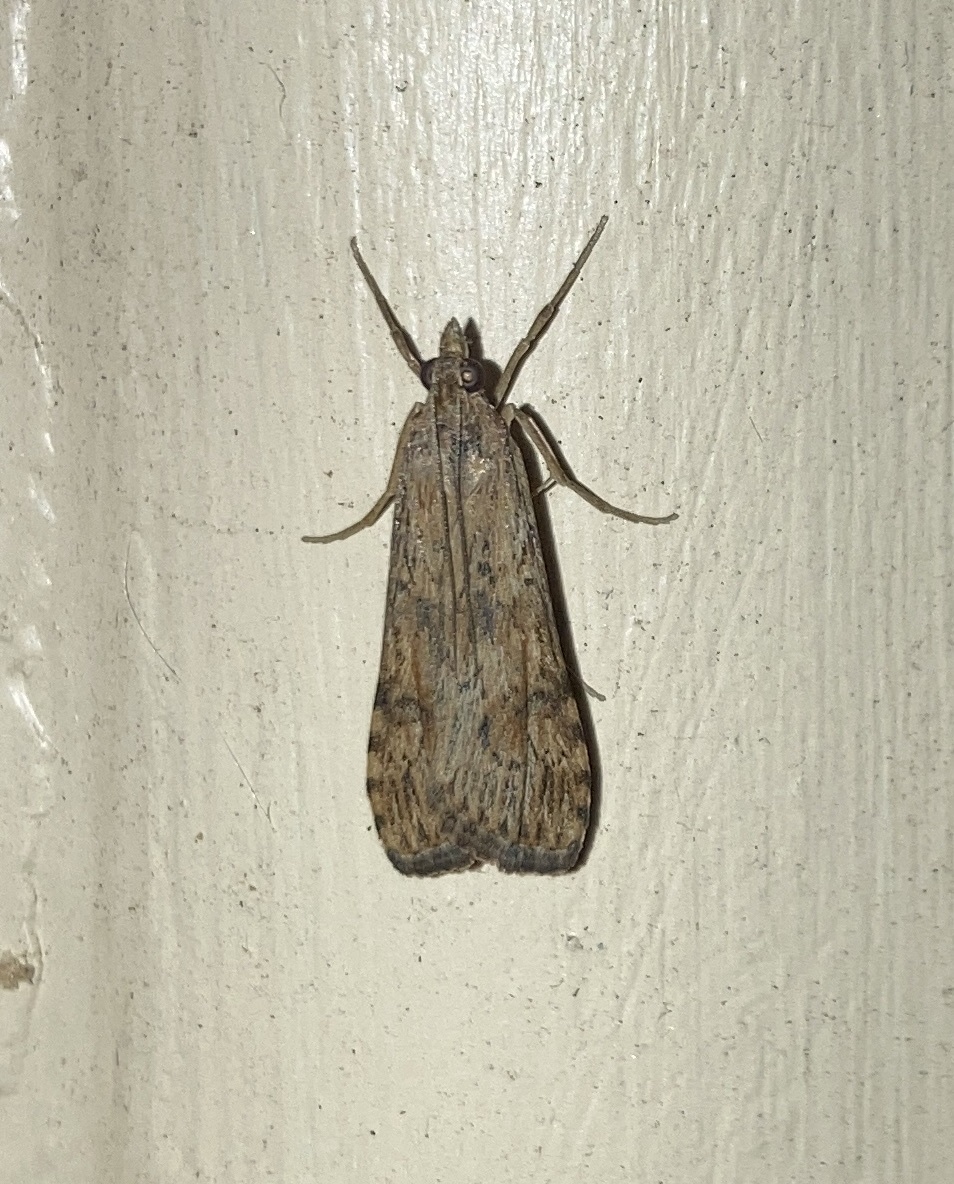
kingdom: Animalia
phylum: Arthropoda
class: Insecta
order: Lepidoptera
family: Crambidae
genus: Nomophila
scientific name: Nomophila nearctica
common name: American rush veneer
